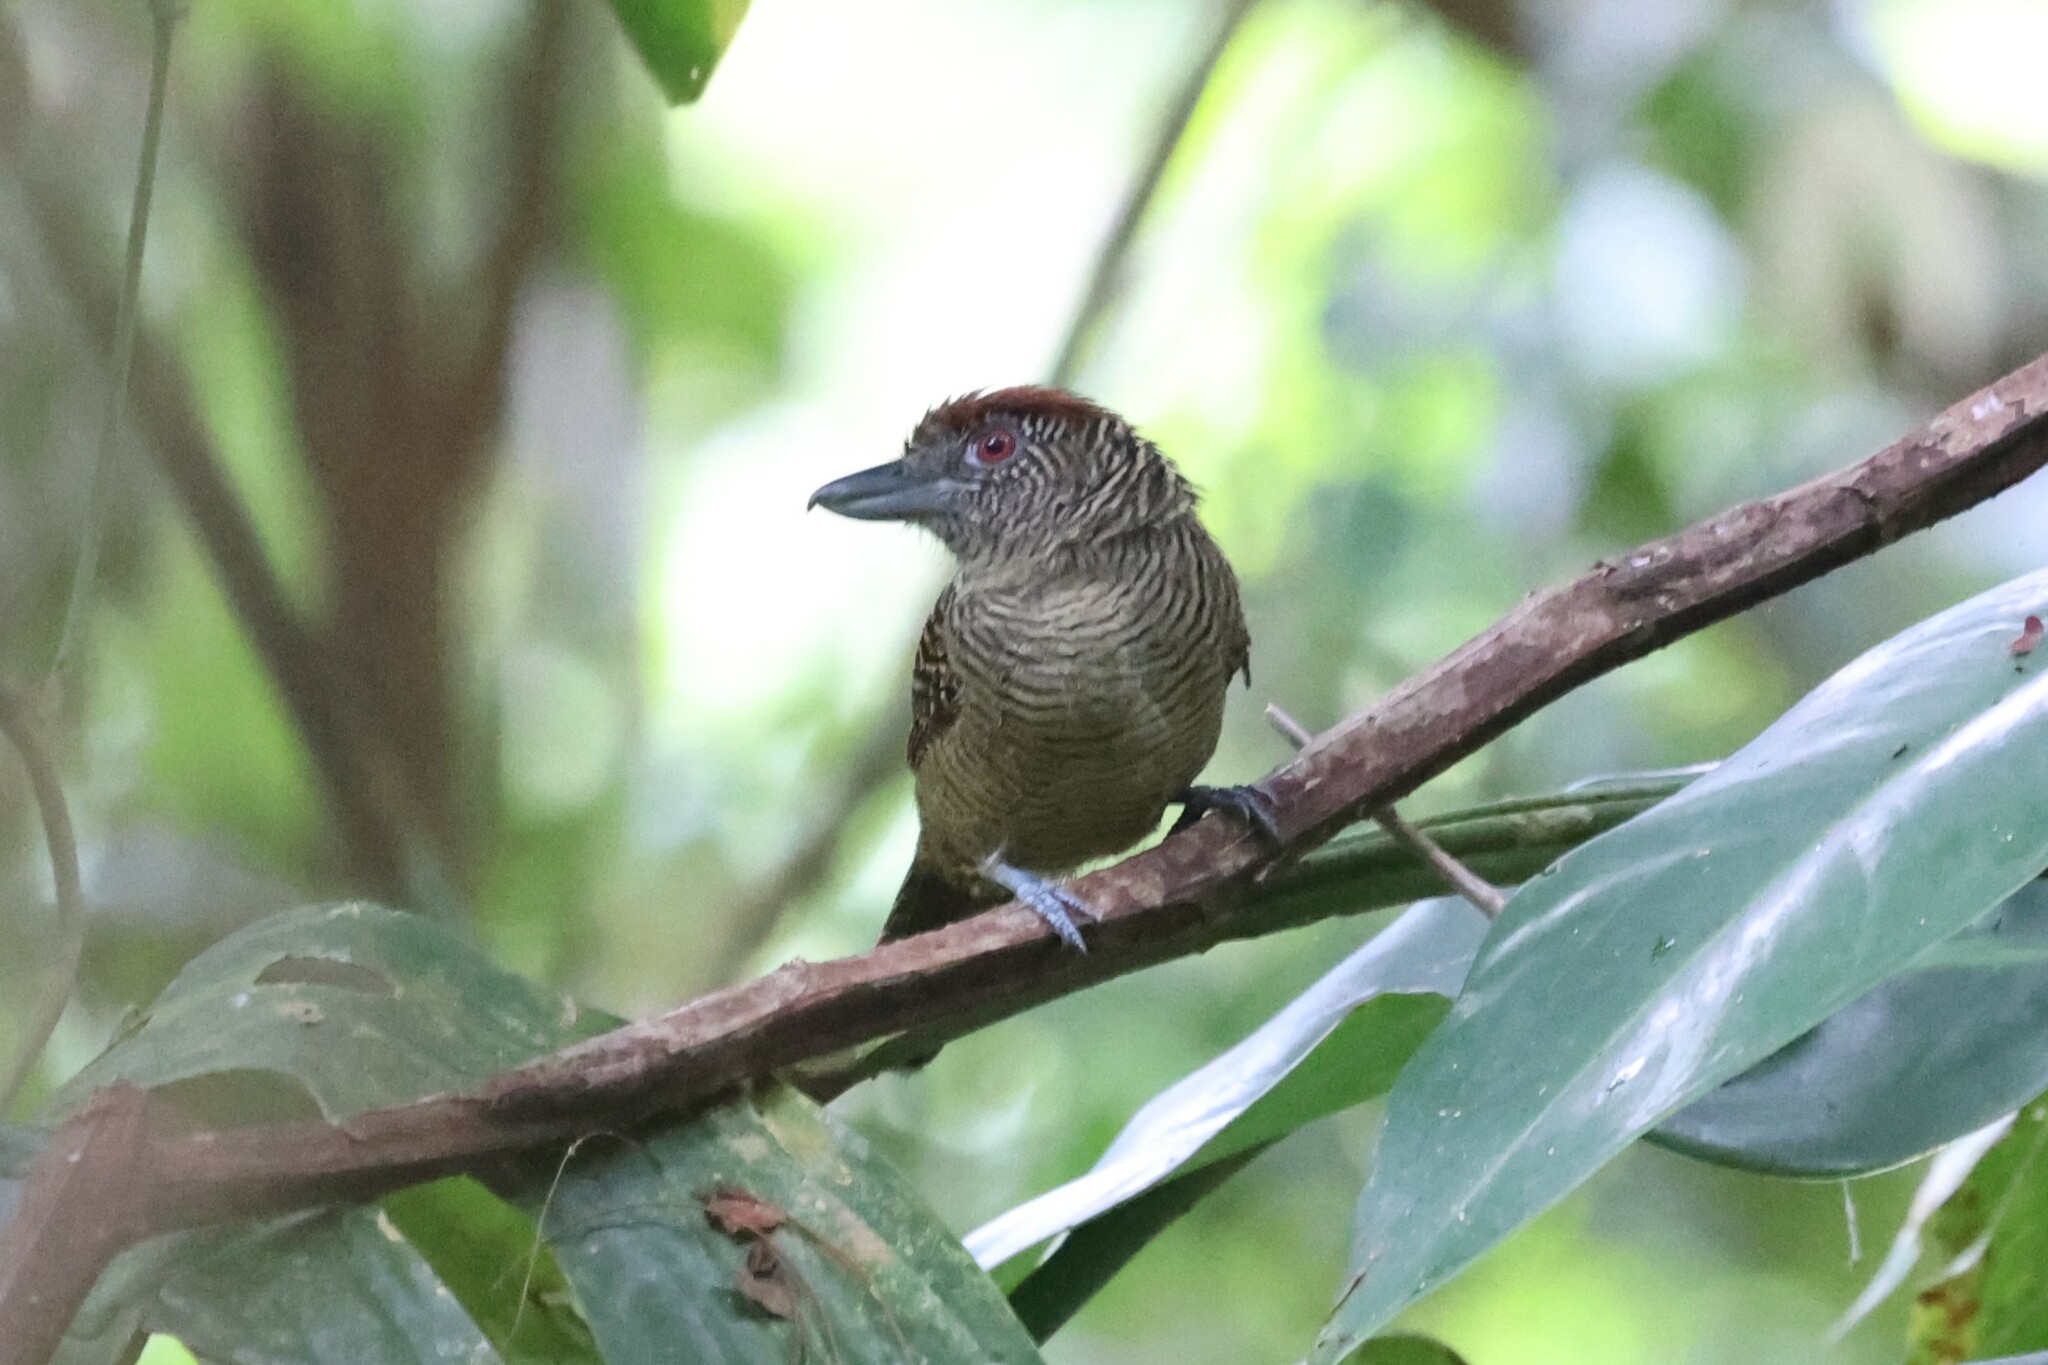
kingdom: Animalia
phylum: Chordata
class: Aves
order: Passeriformes
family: Thamnophilidae
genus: Cymbilaimus
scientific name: Cymbilaimus lineatus
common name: Fasciated antshrike
